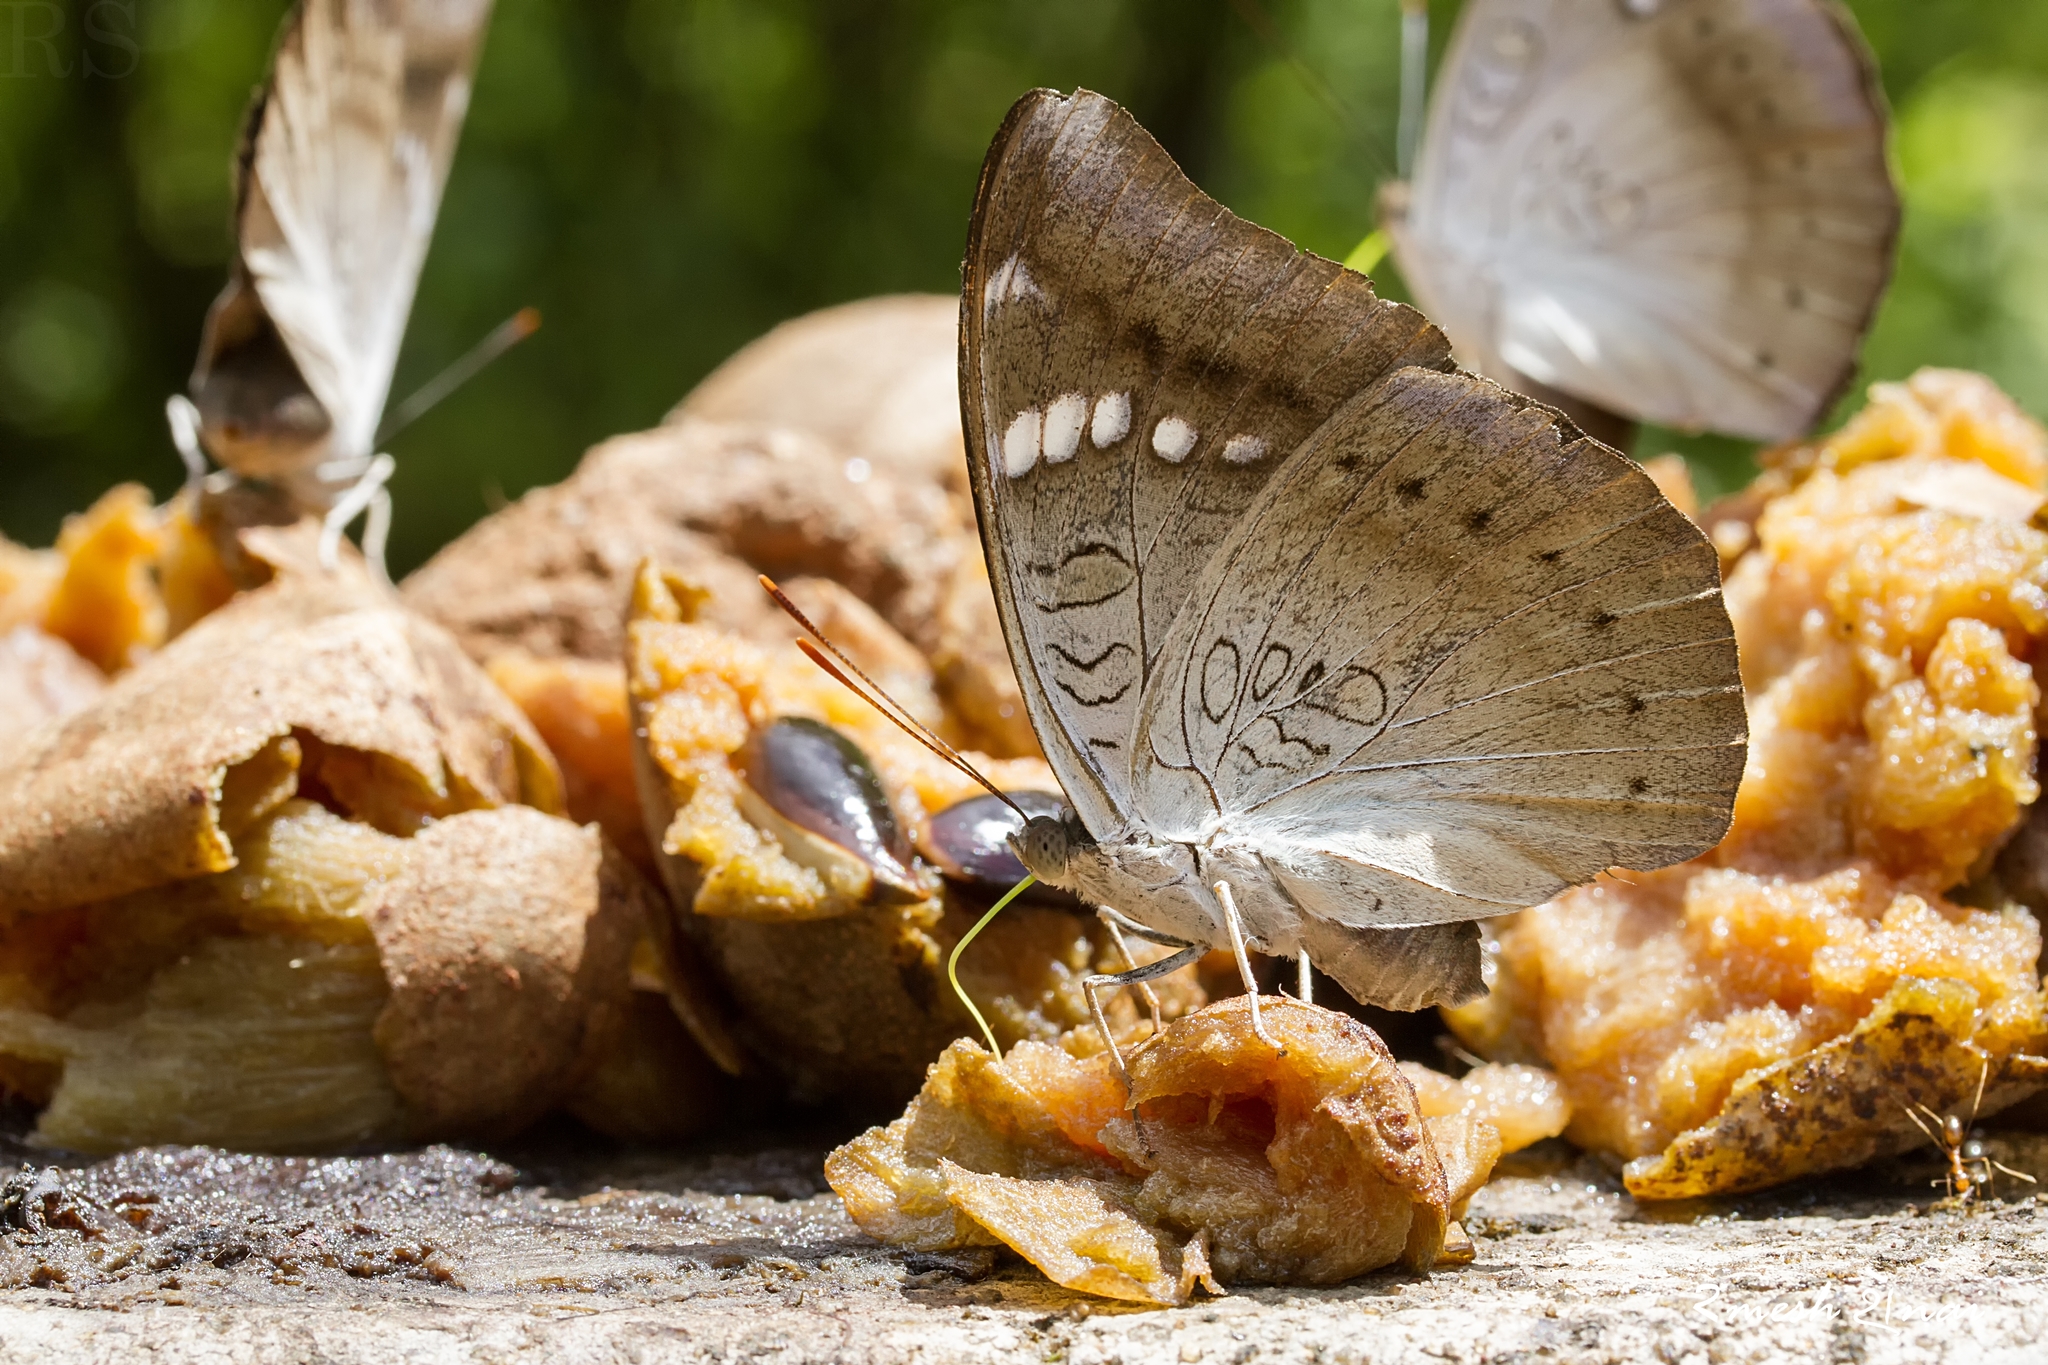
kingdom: Animalia
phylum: Arthropoda
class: Insecta
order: Lepidoptera
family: Nymphalidae
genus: Euthalia
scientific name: Euthalia aconthea
